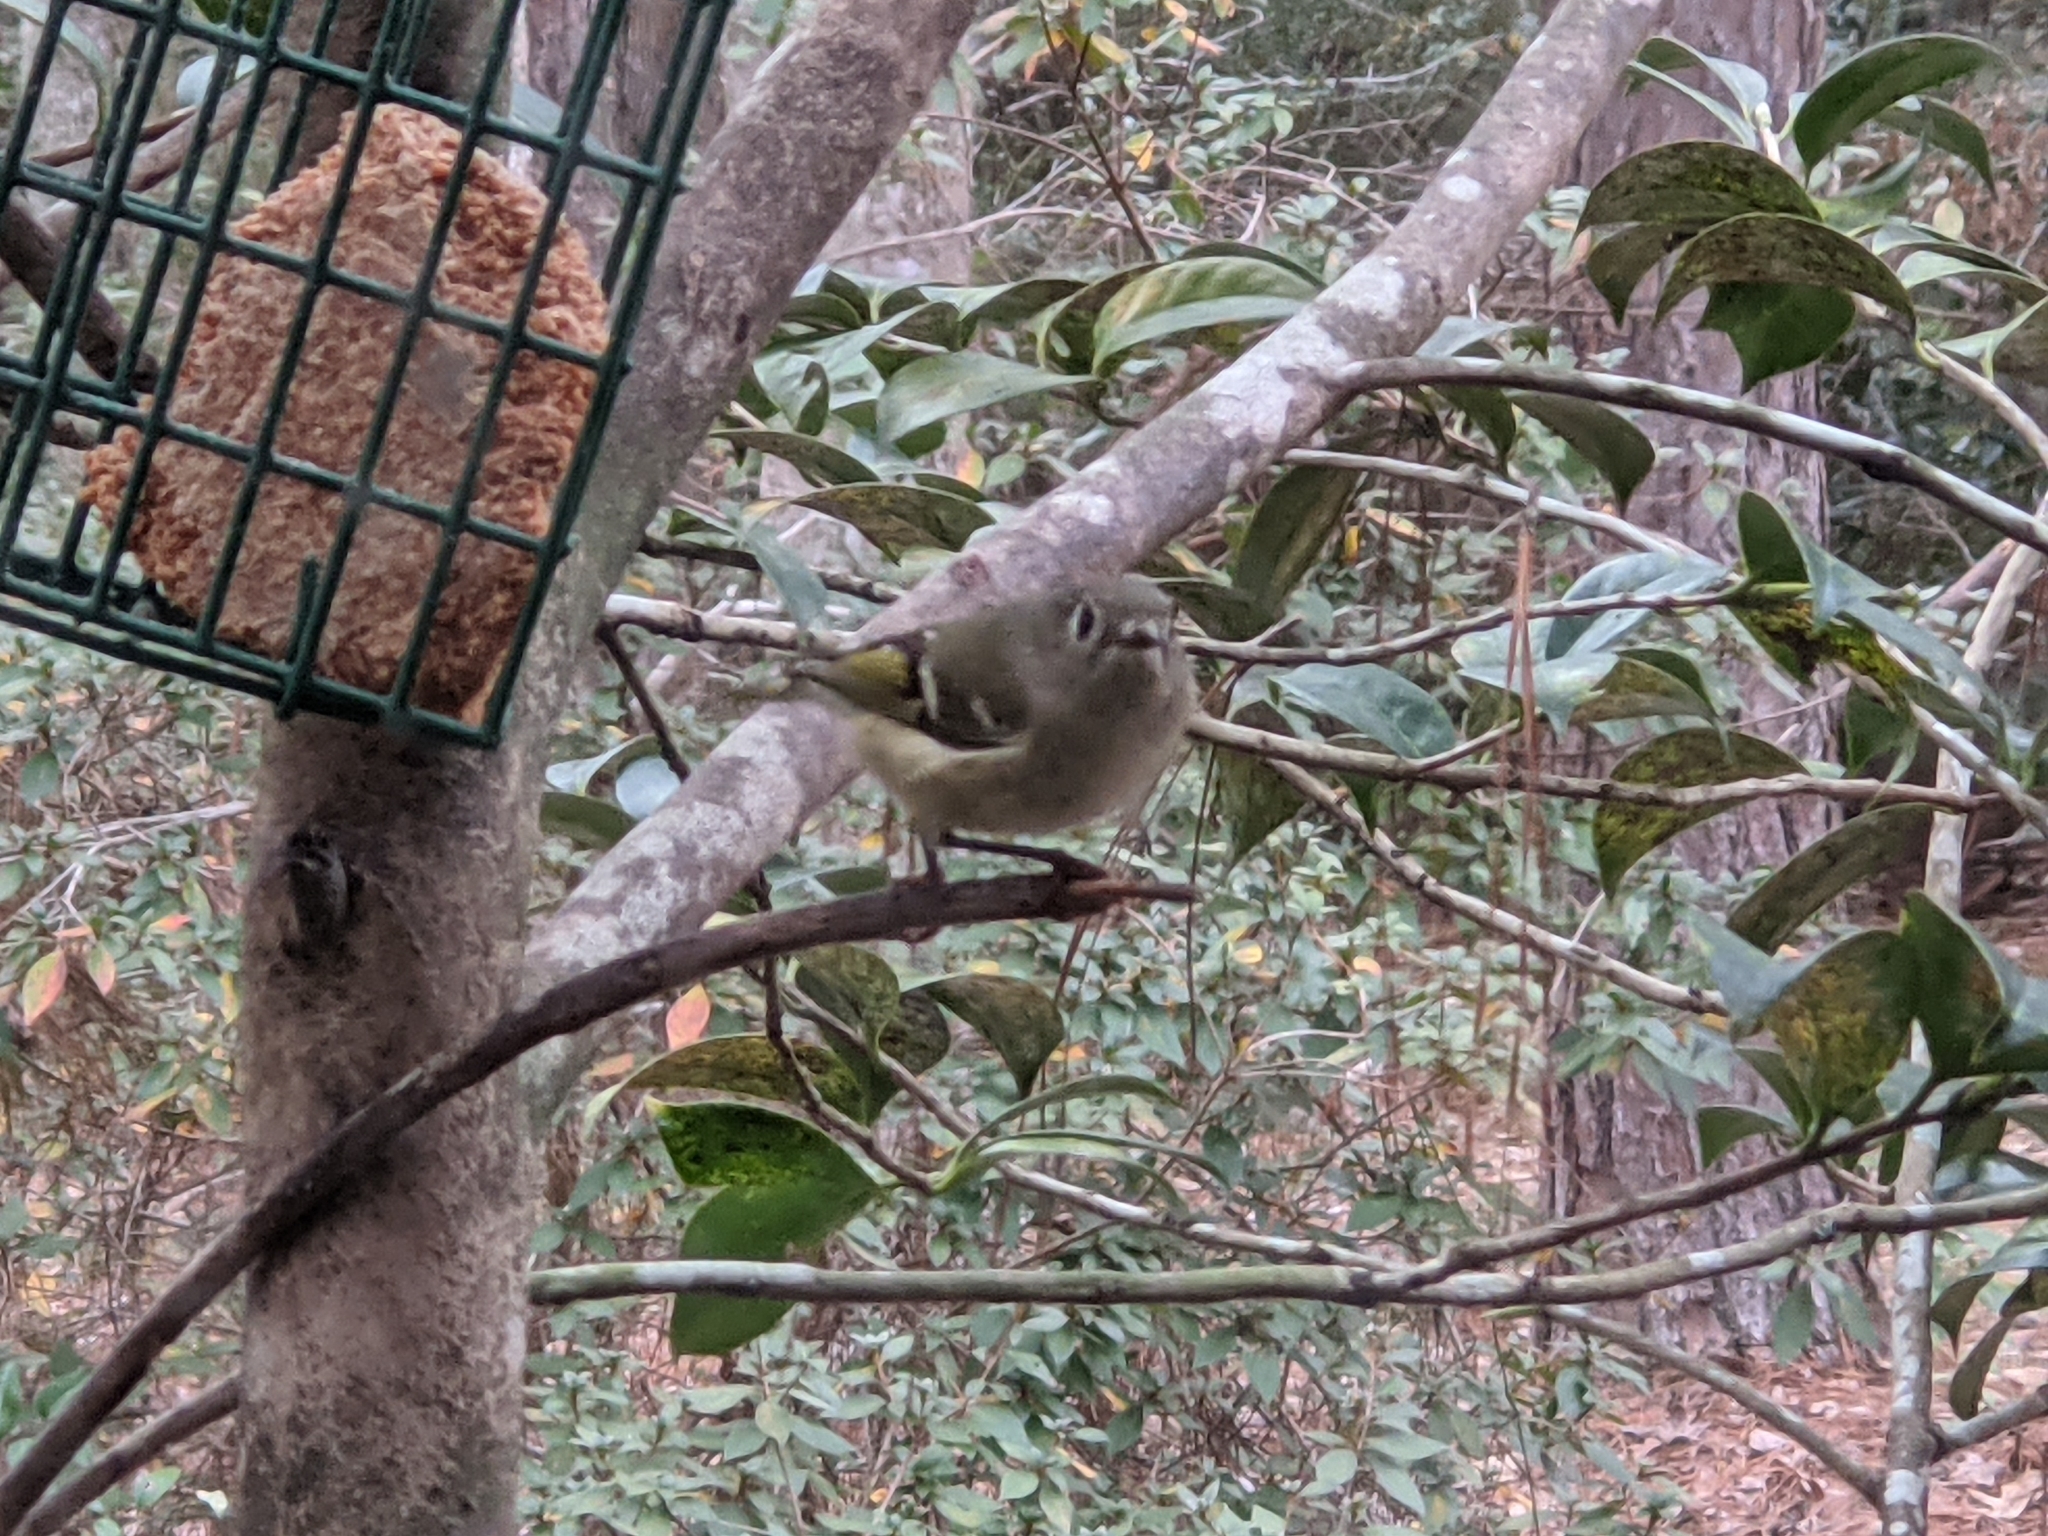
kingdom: Animalia
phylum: Chordata
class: Aves
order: Passeriformes
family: Regulidae
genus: Regulus
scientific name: Regulus calendula
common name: Ruby-crowned kinglet
